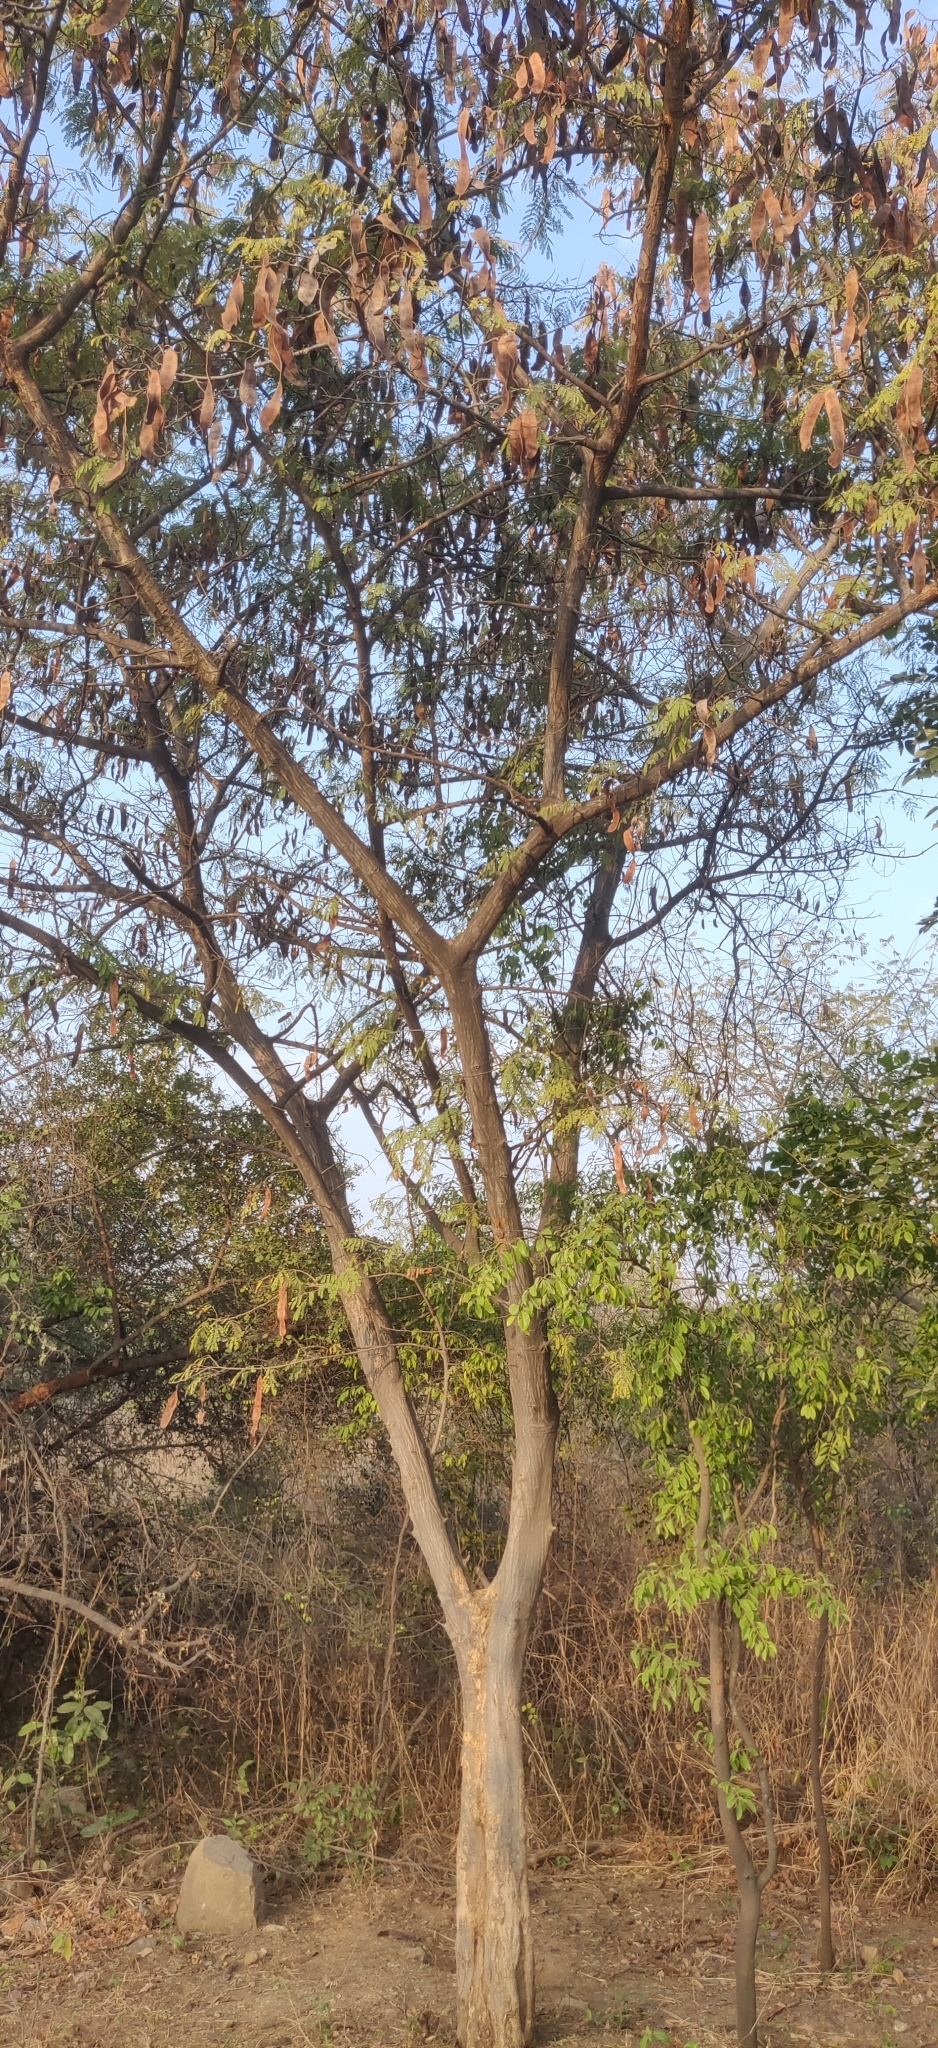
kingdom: Plantae
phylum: Tracheophyta
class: Magnoliopsida
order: Fabales
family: Fabaceae
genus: Albizia
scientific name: Albizia amara
